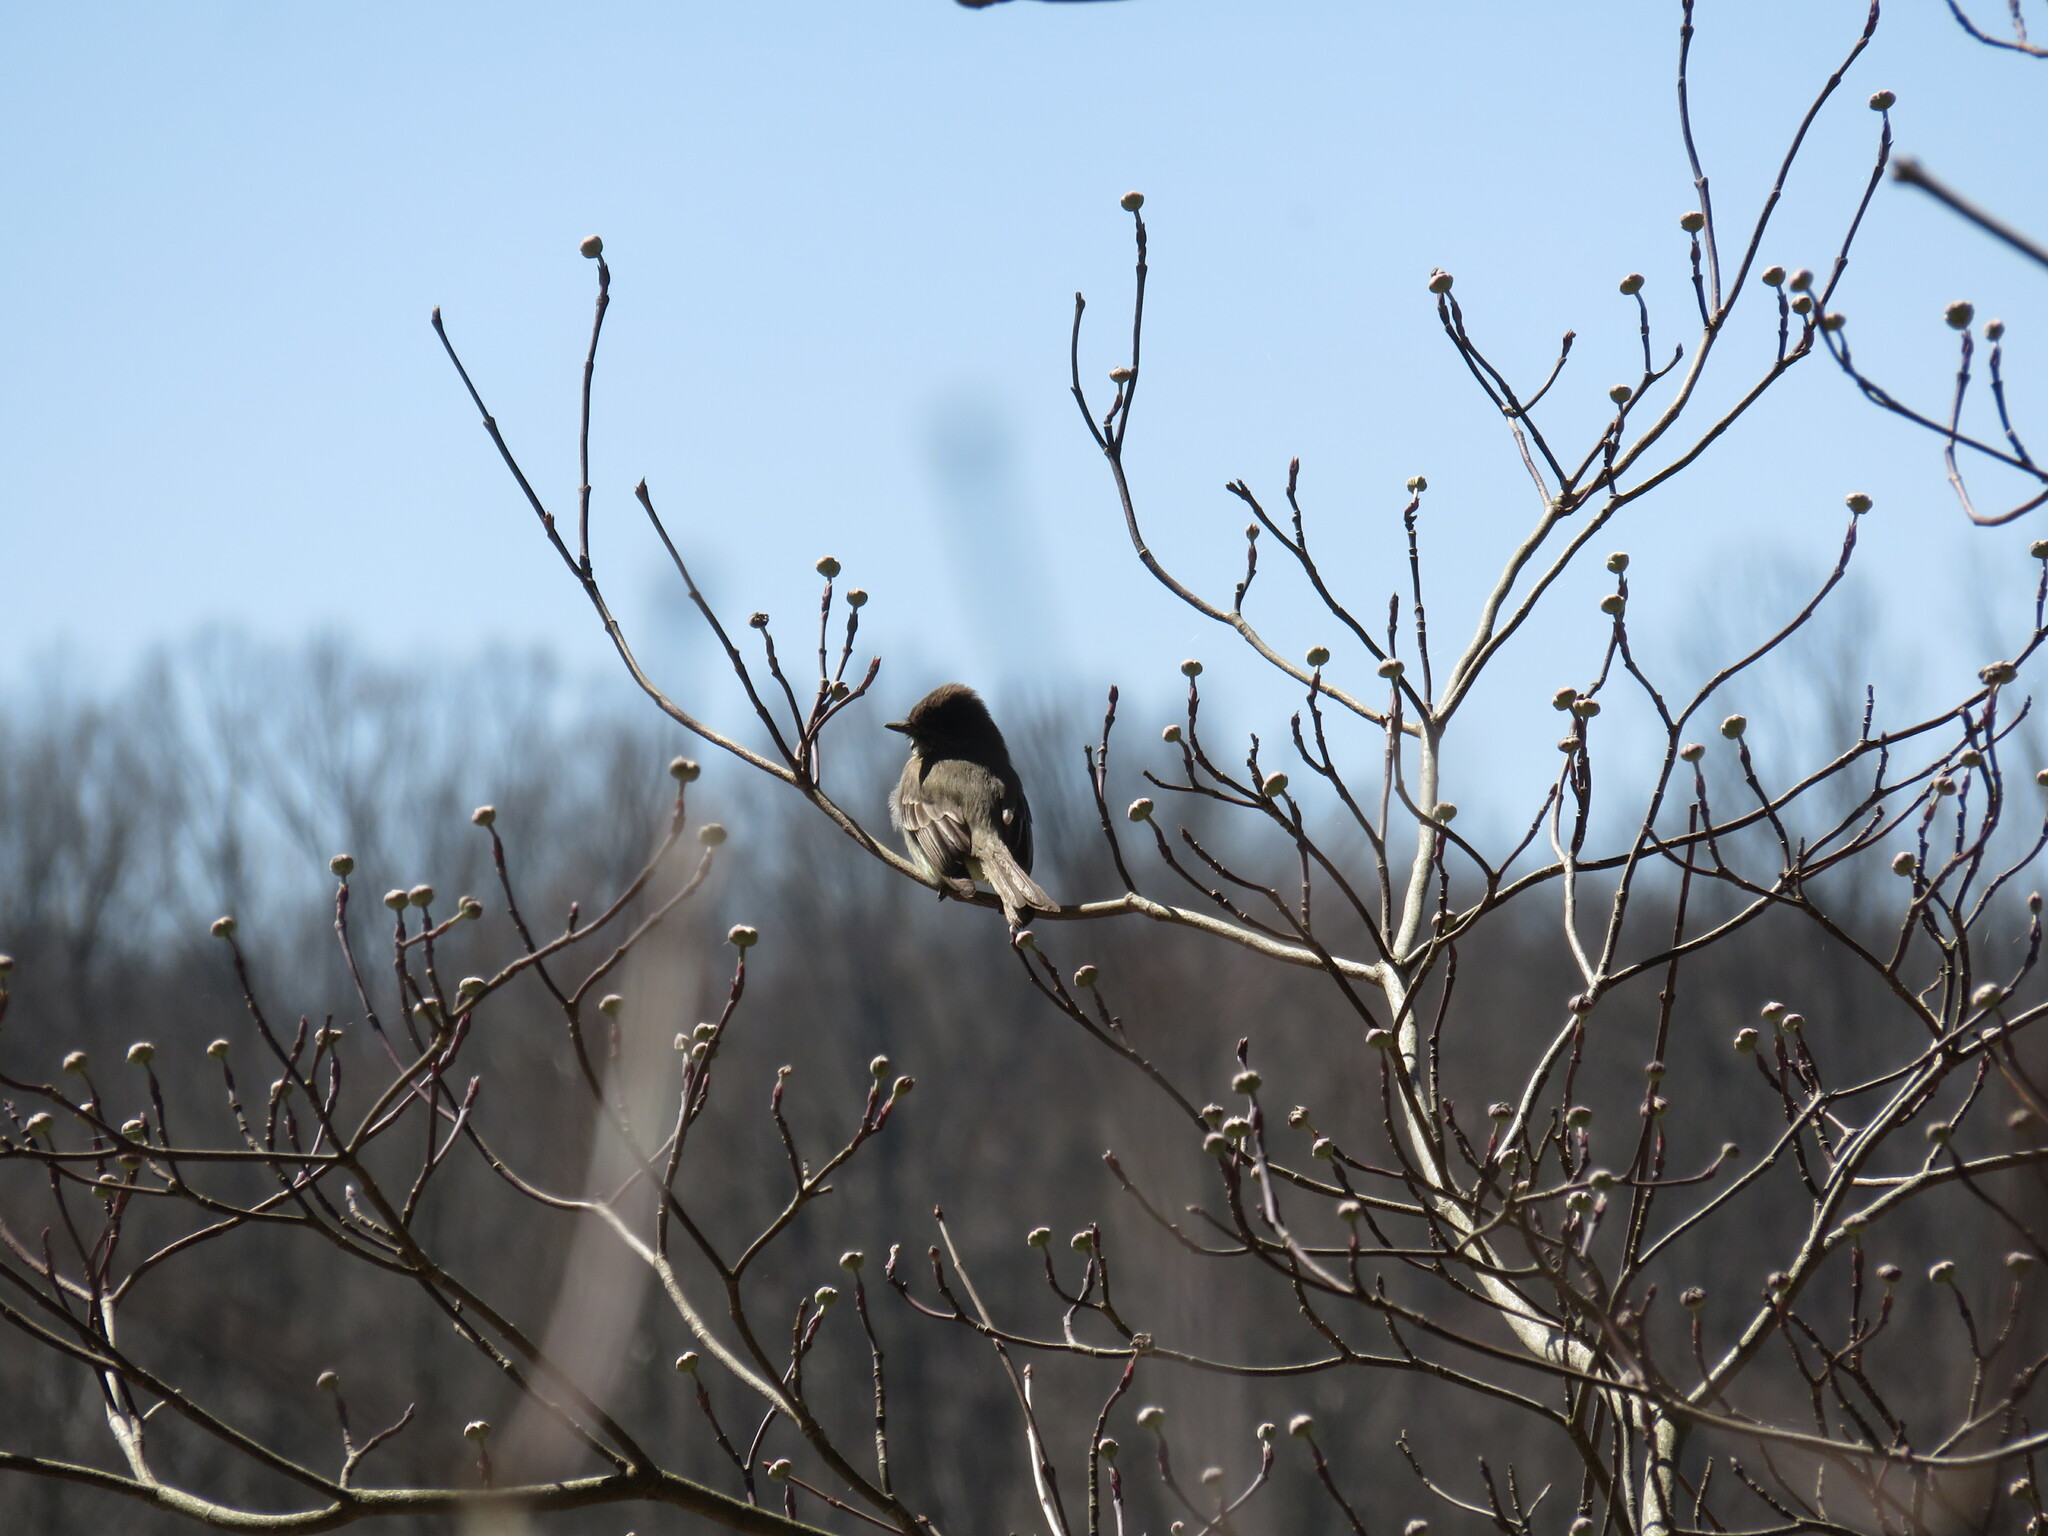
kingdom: Animalia
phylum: Chordata
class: Aves
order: Passeriformes
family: Tyrannidae
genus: Sayornis
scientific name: Sayornis phoebe
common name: Eastern phoebe
